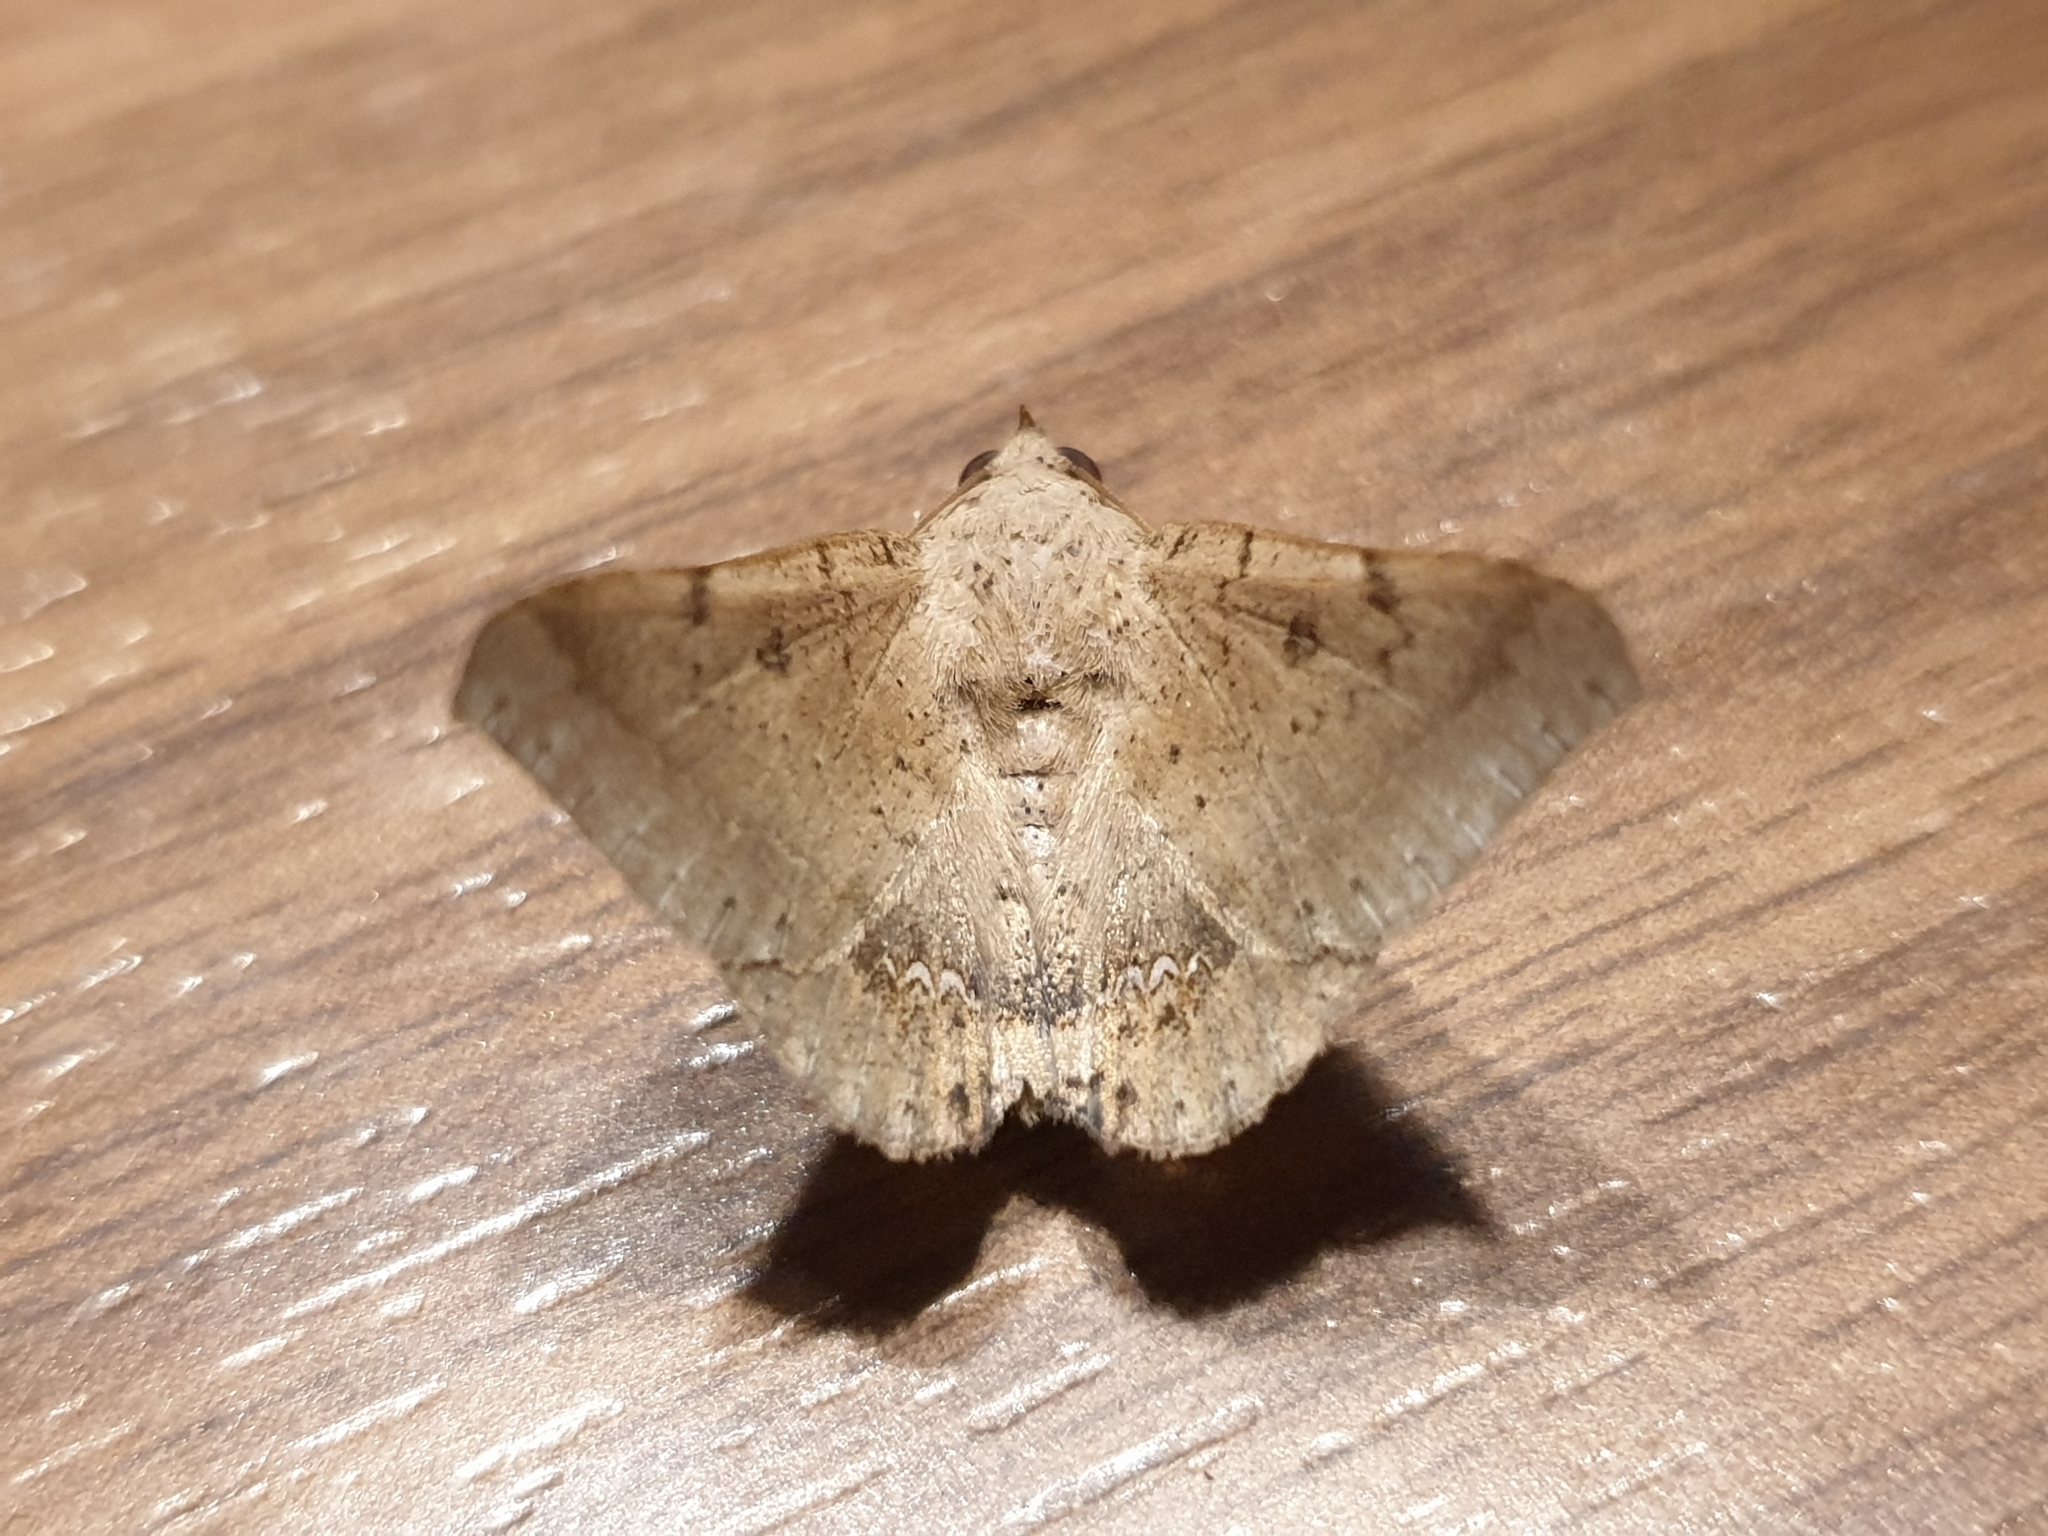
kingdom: Animalia
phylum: Arthropoda
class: Insecta
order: Lepidoptera
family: Erebidae
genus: Macaldenia
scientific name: Macaldenia palumba
